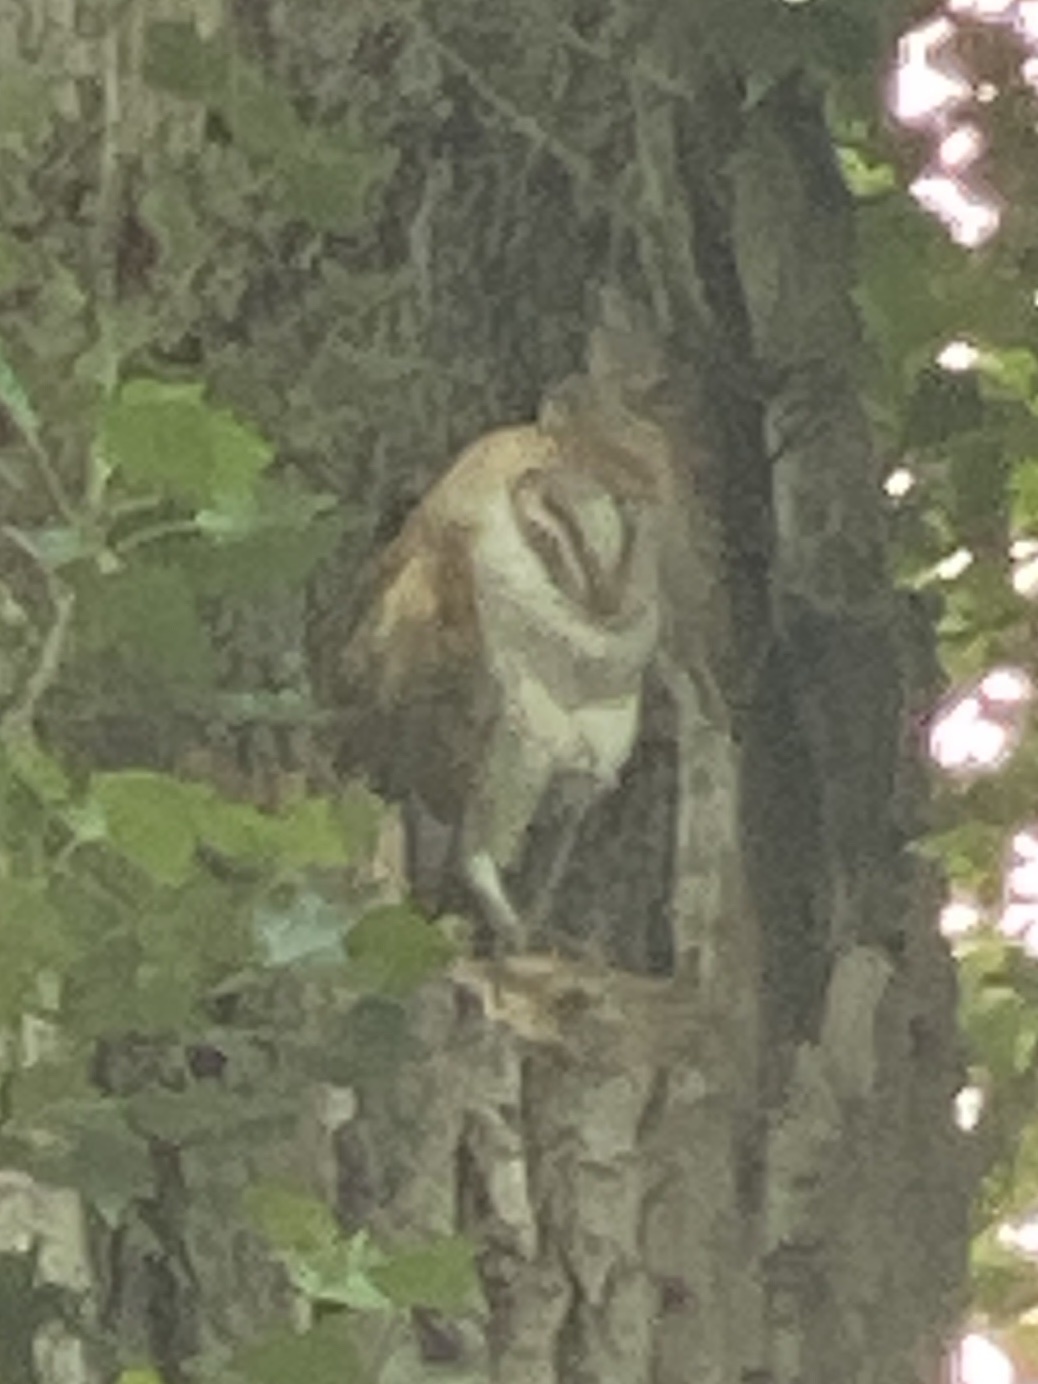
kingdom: Animalia
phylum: Chordata
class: Aves
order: Strigiformes
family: Tytonidae
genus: Tyto
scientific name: Tyto alba
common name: Barn owl
